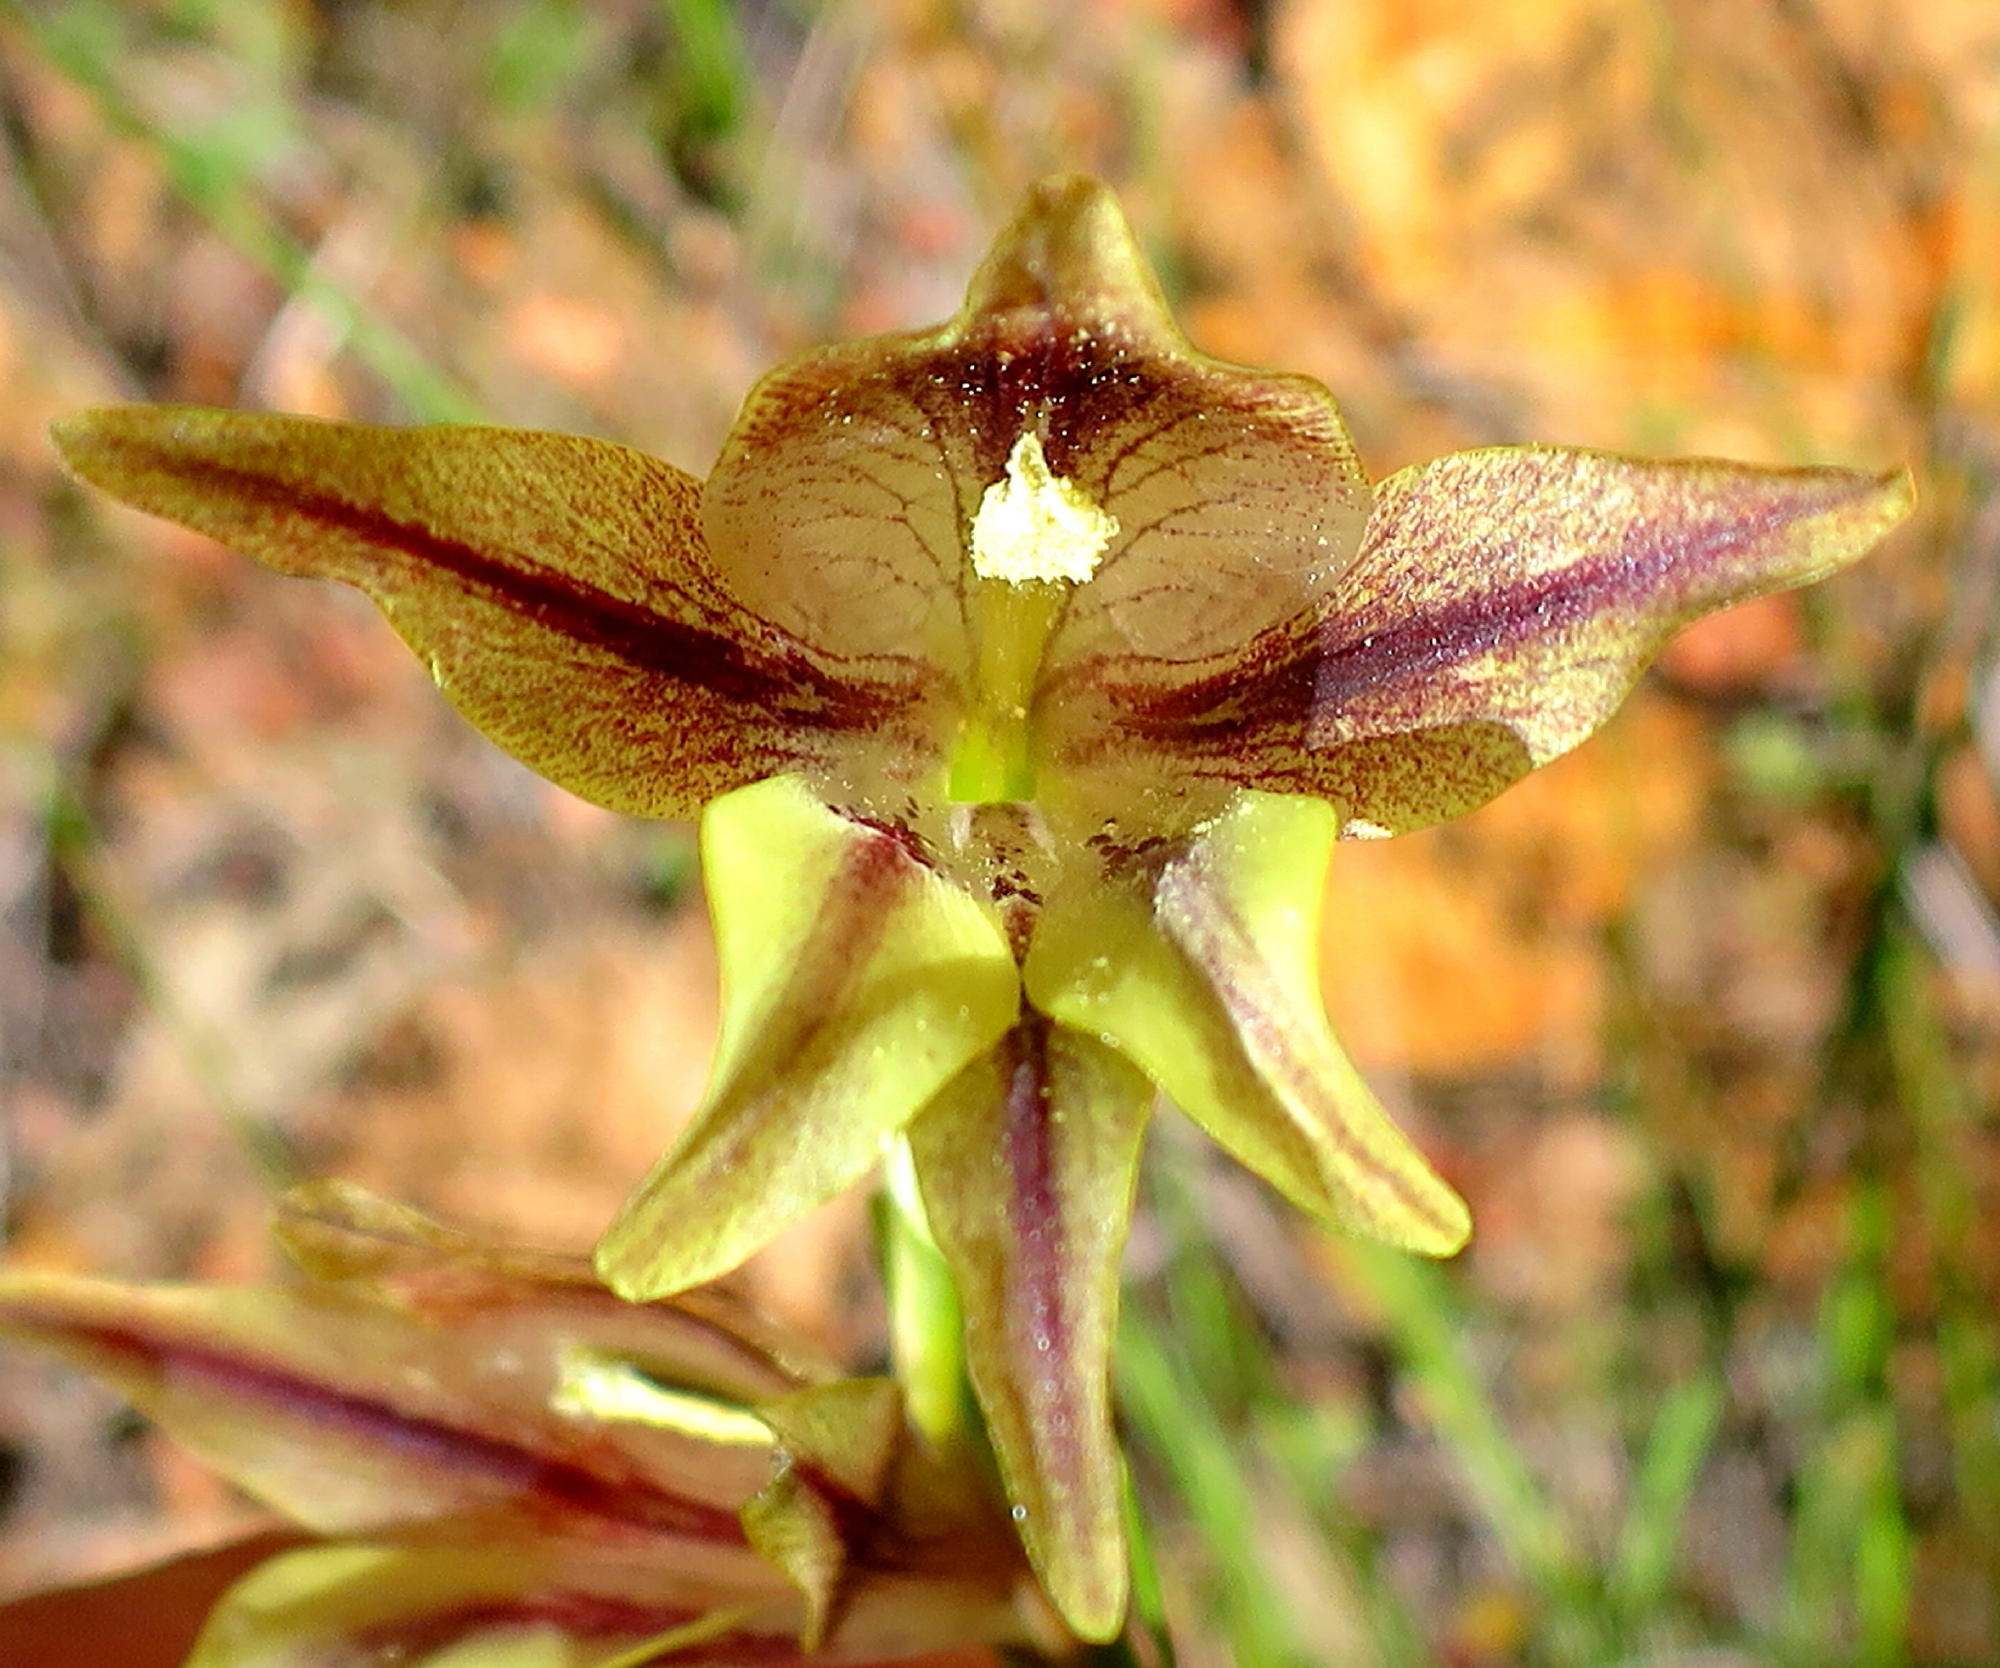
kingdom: Plantae
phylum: Tracheophyta
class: Liliopsida
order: Asparagales
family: Iridaceae
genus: Gladiolus
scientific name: Gladiolus maculatus
